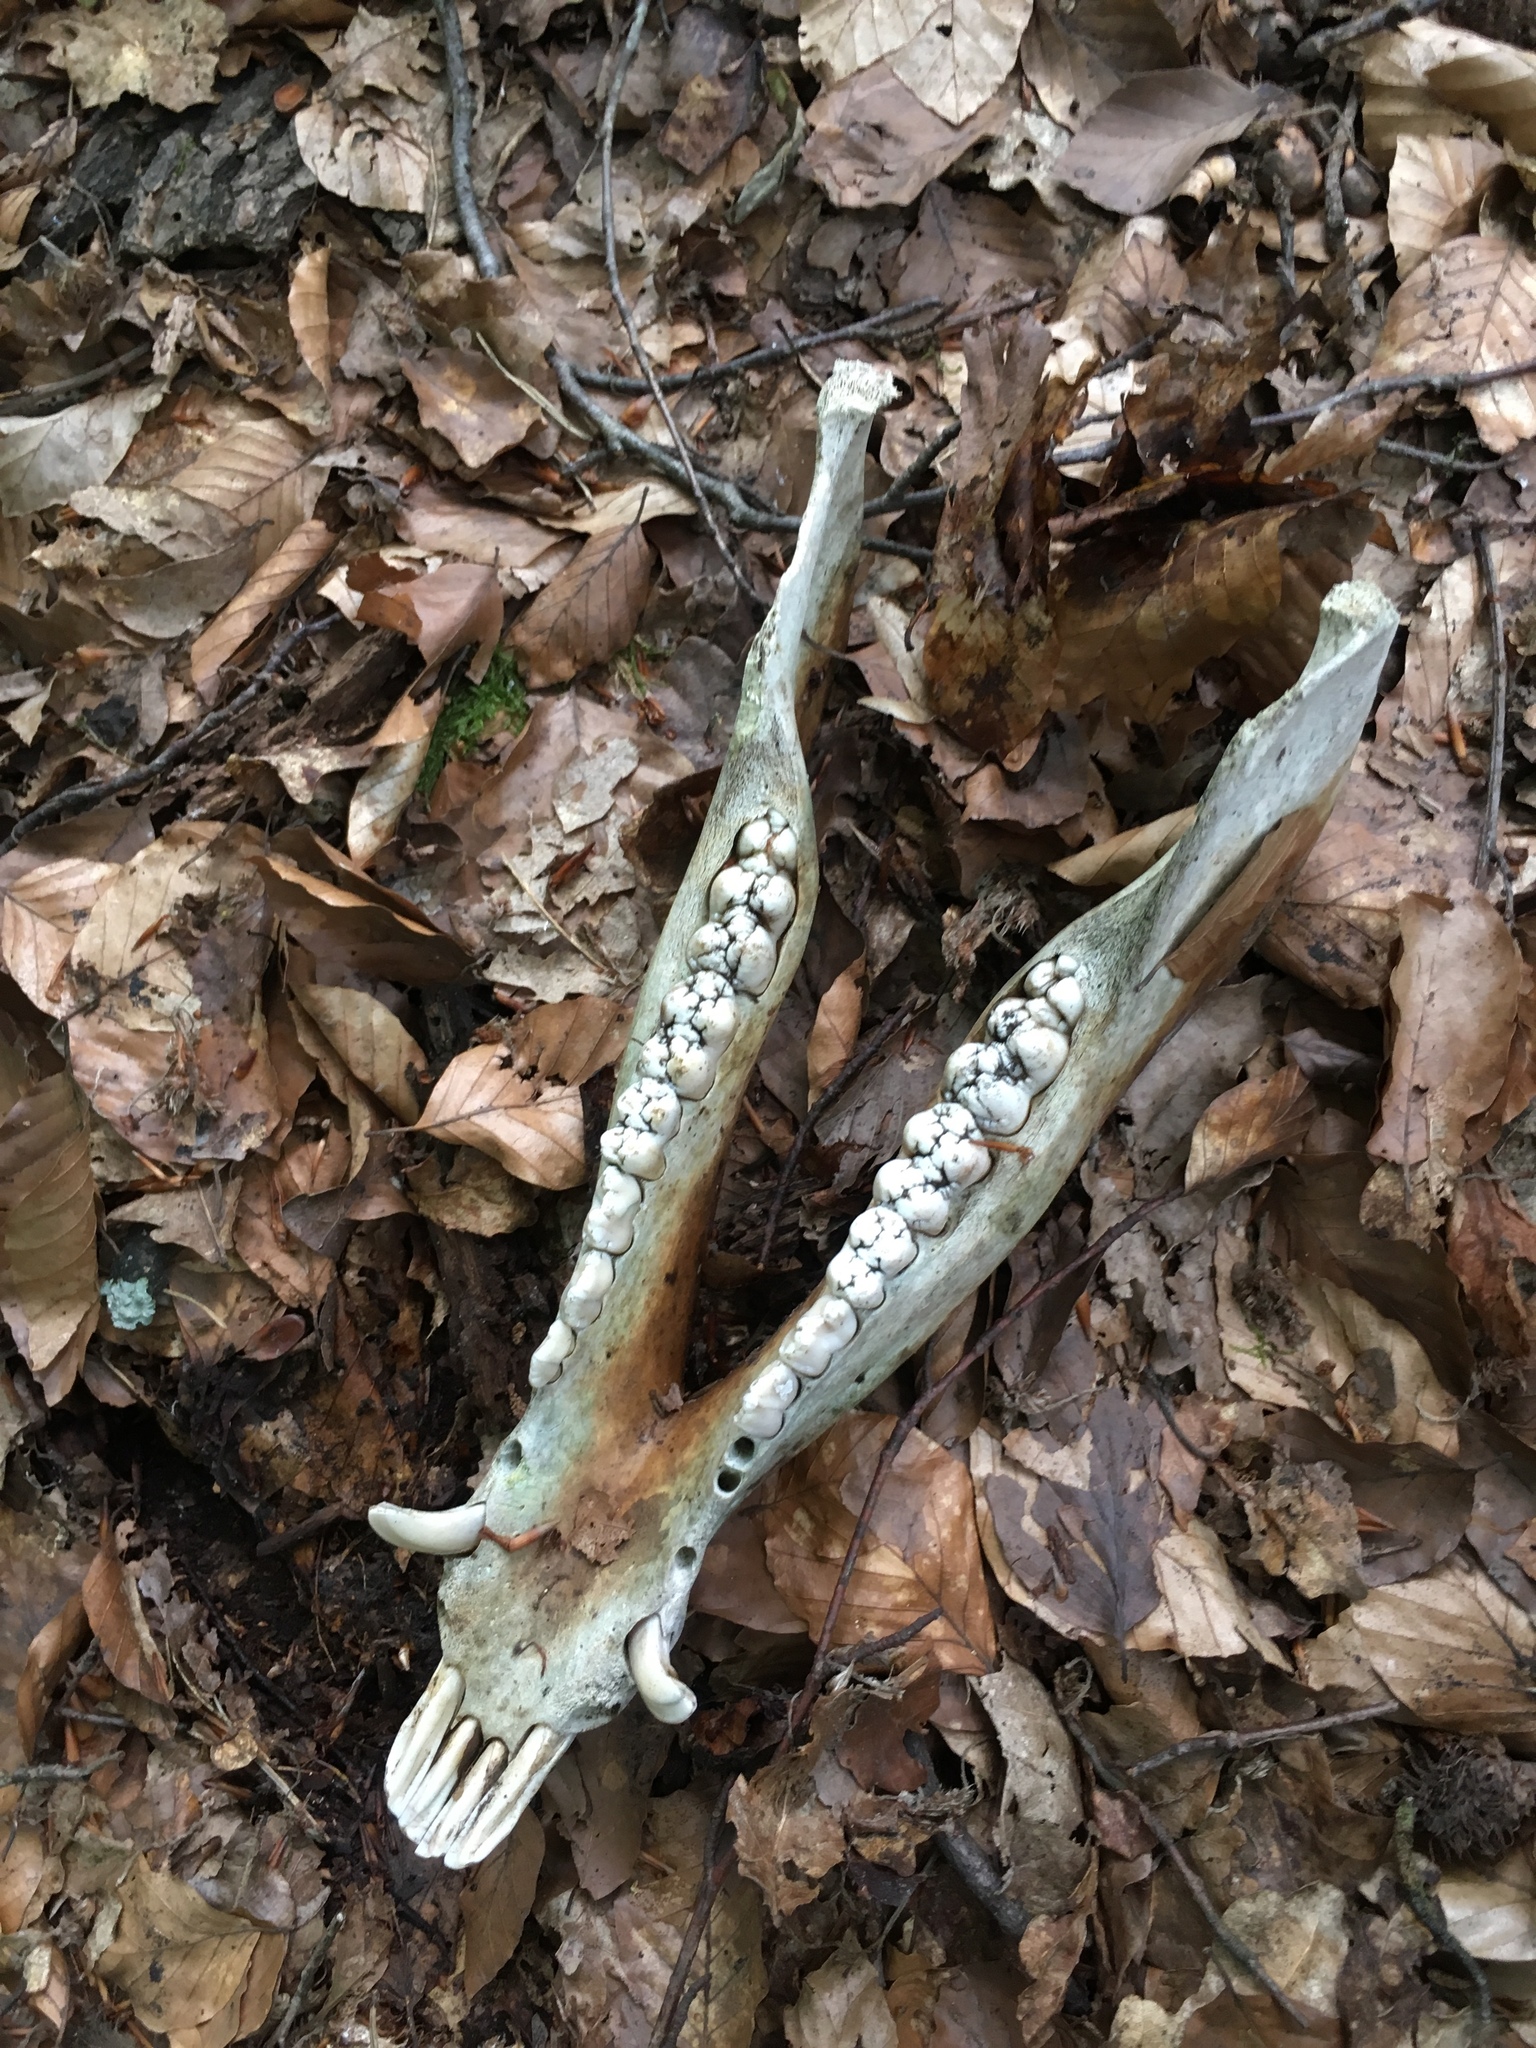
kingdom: Animalia
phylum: Chordata
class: Mammalia
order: Artiodactyla
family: Suidae
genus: Sus
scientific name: Sus scrofa
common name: Wild boar
